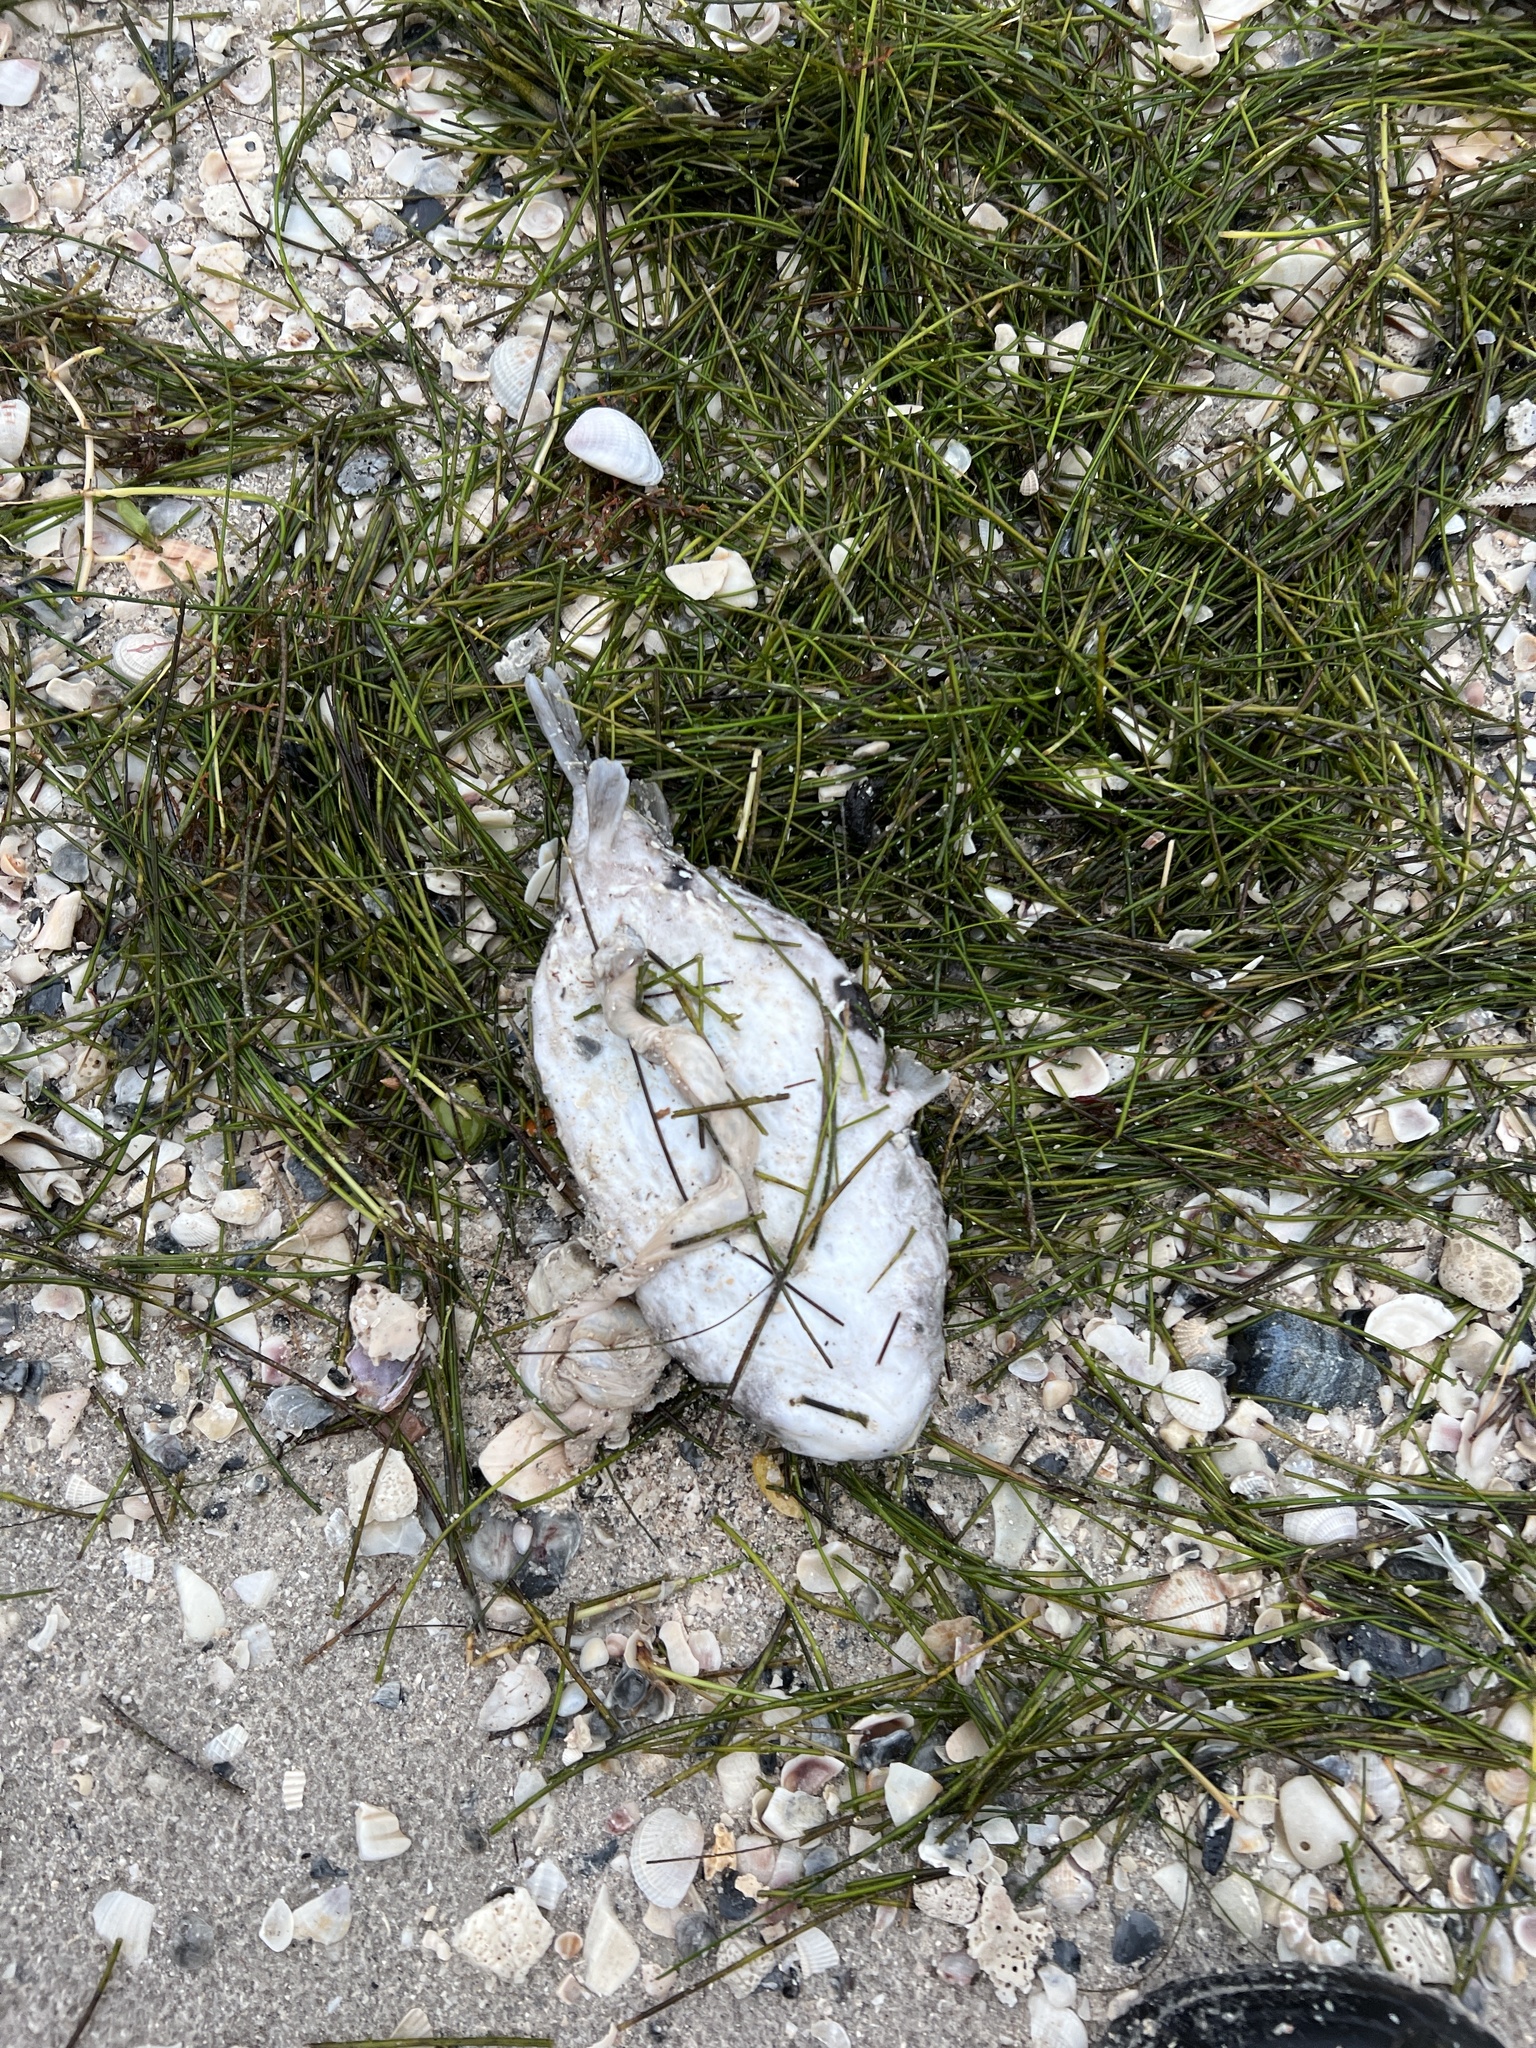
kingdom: Animalia
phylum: Chordata
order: Tetraodontiformes
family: Diodontidae
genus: Chilomycterus
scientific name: Chilomycterus schoepfii
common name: Striped burrfish
